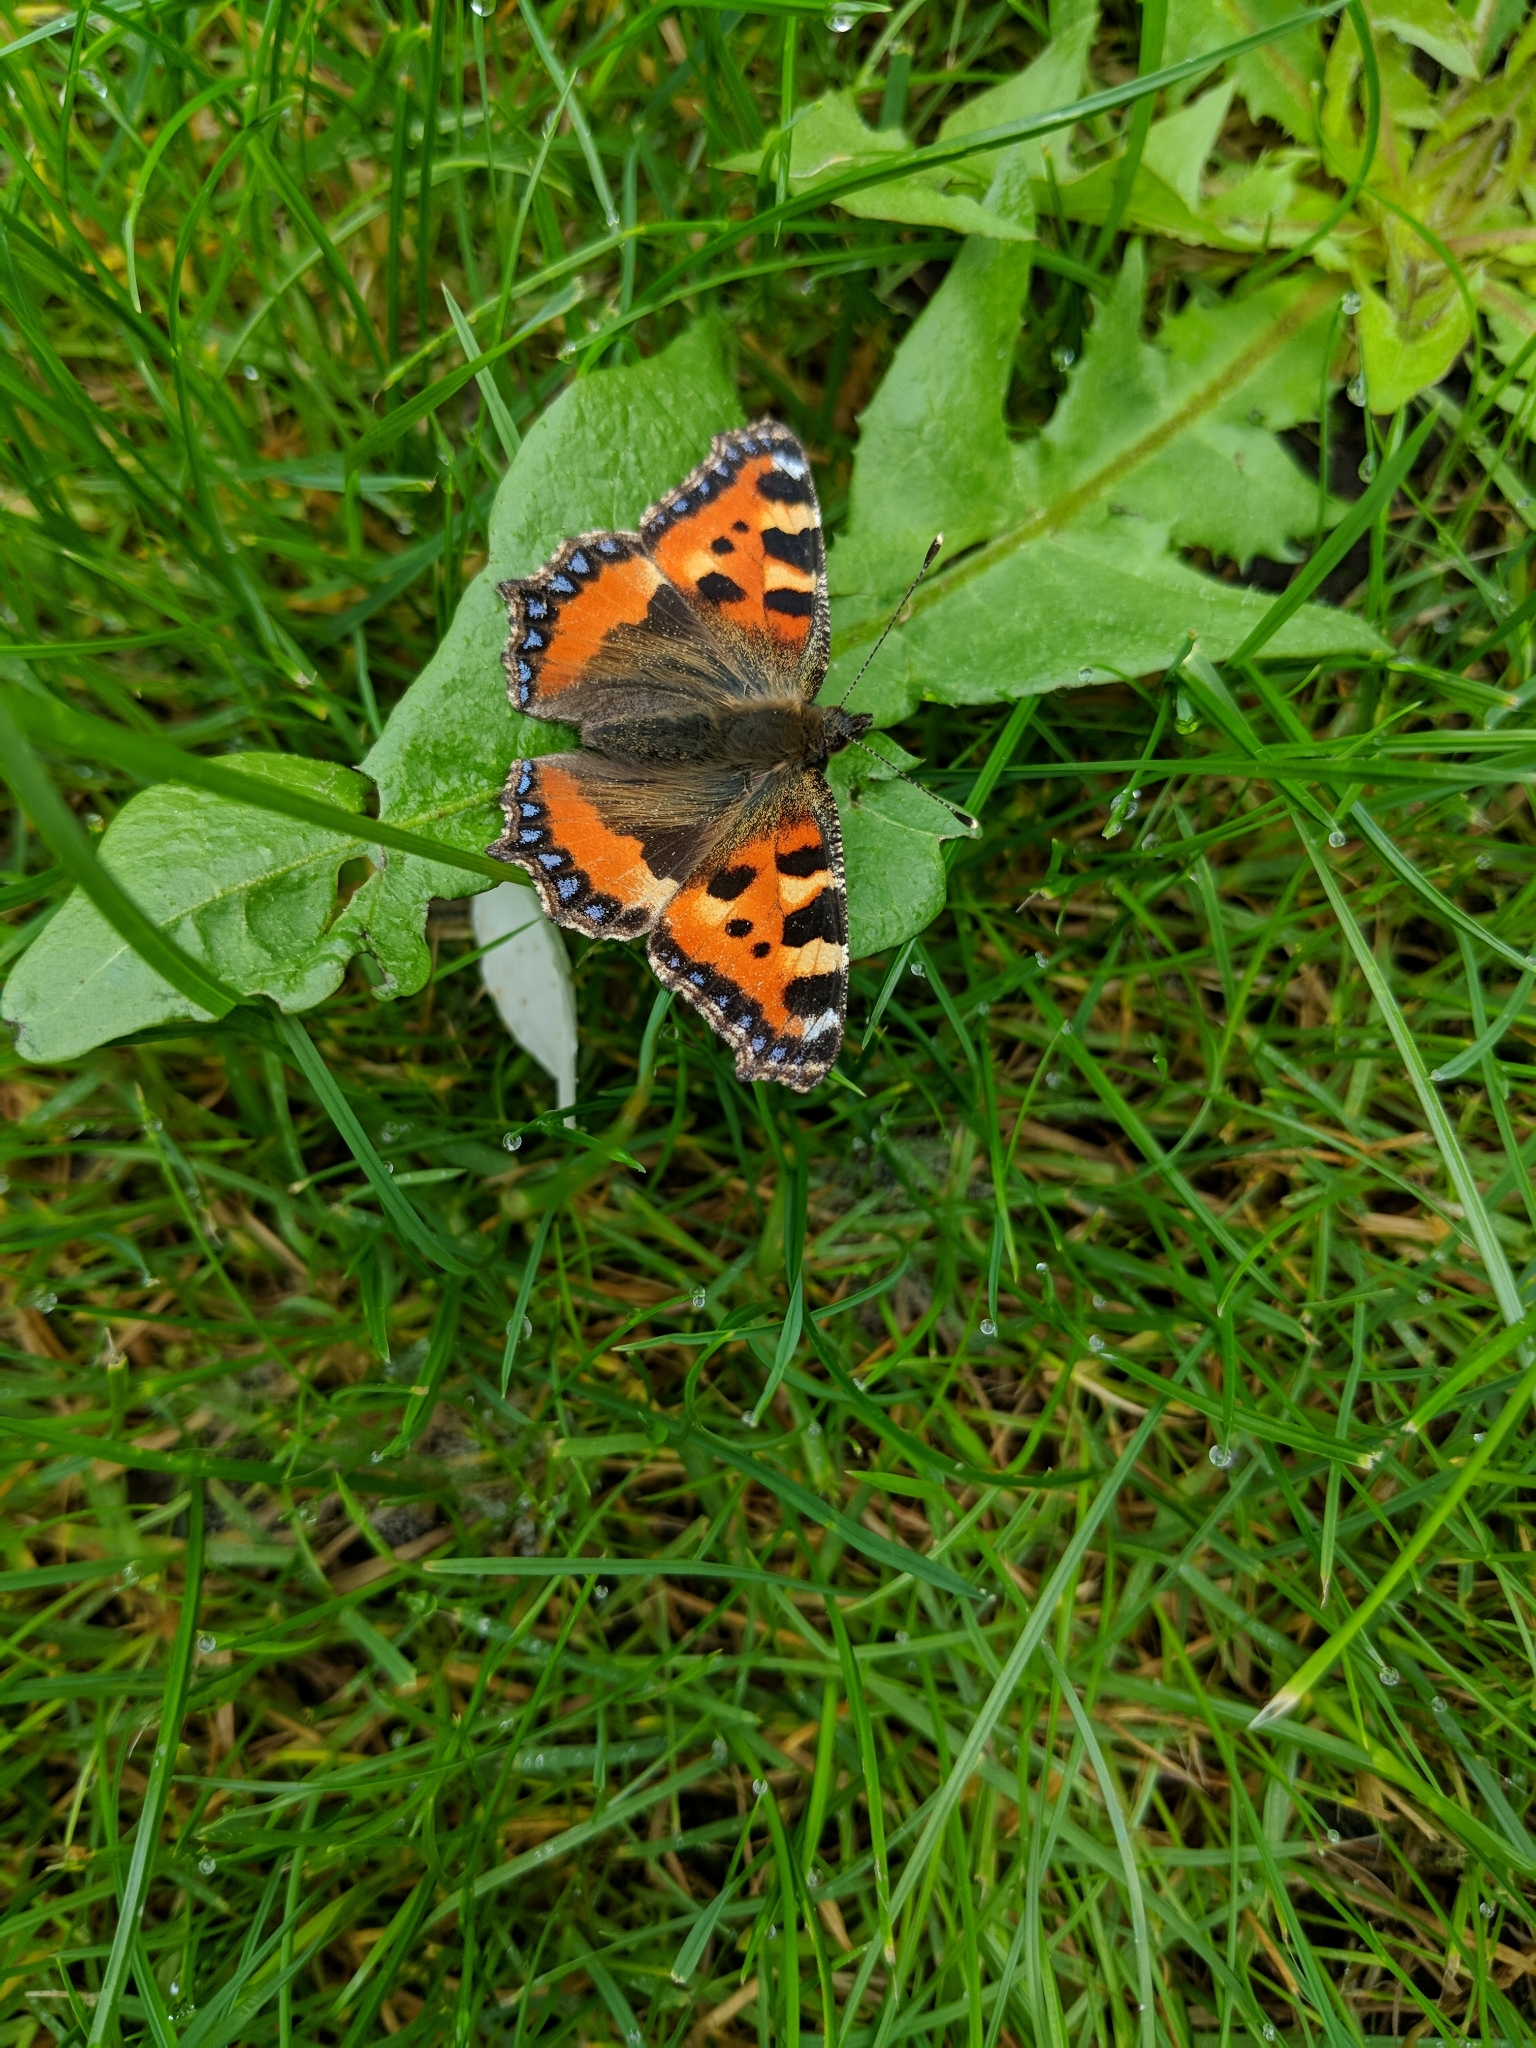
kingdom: Animalia
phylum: Arthropoda
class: Insecta
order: Lepidoptera
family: Nymphalidae
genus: Aglais
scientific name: Aglais urticae
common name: Small tortoiseshell
